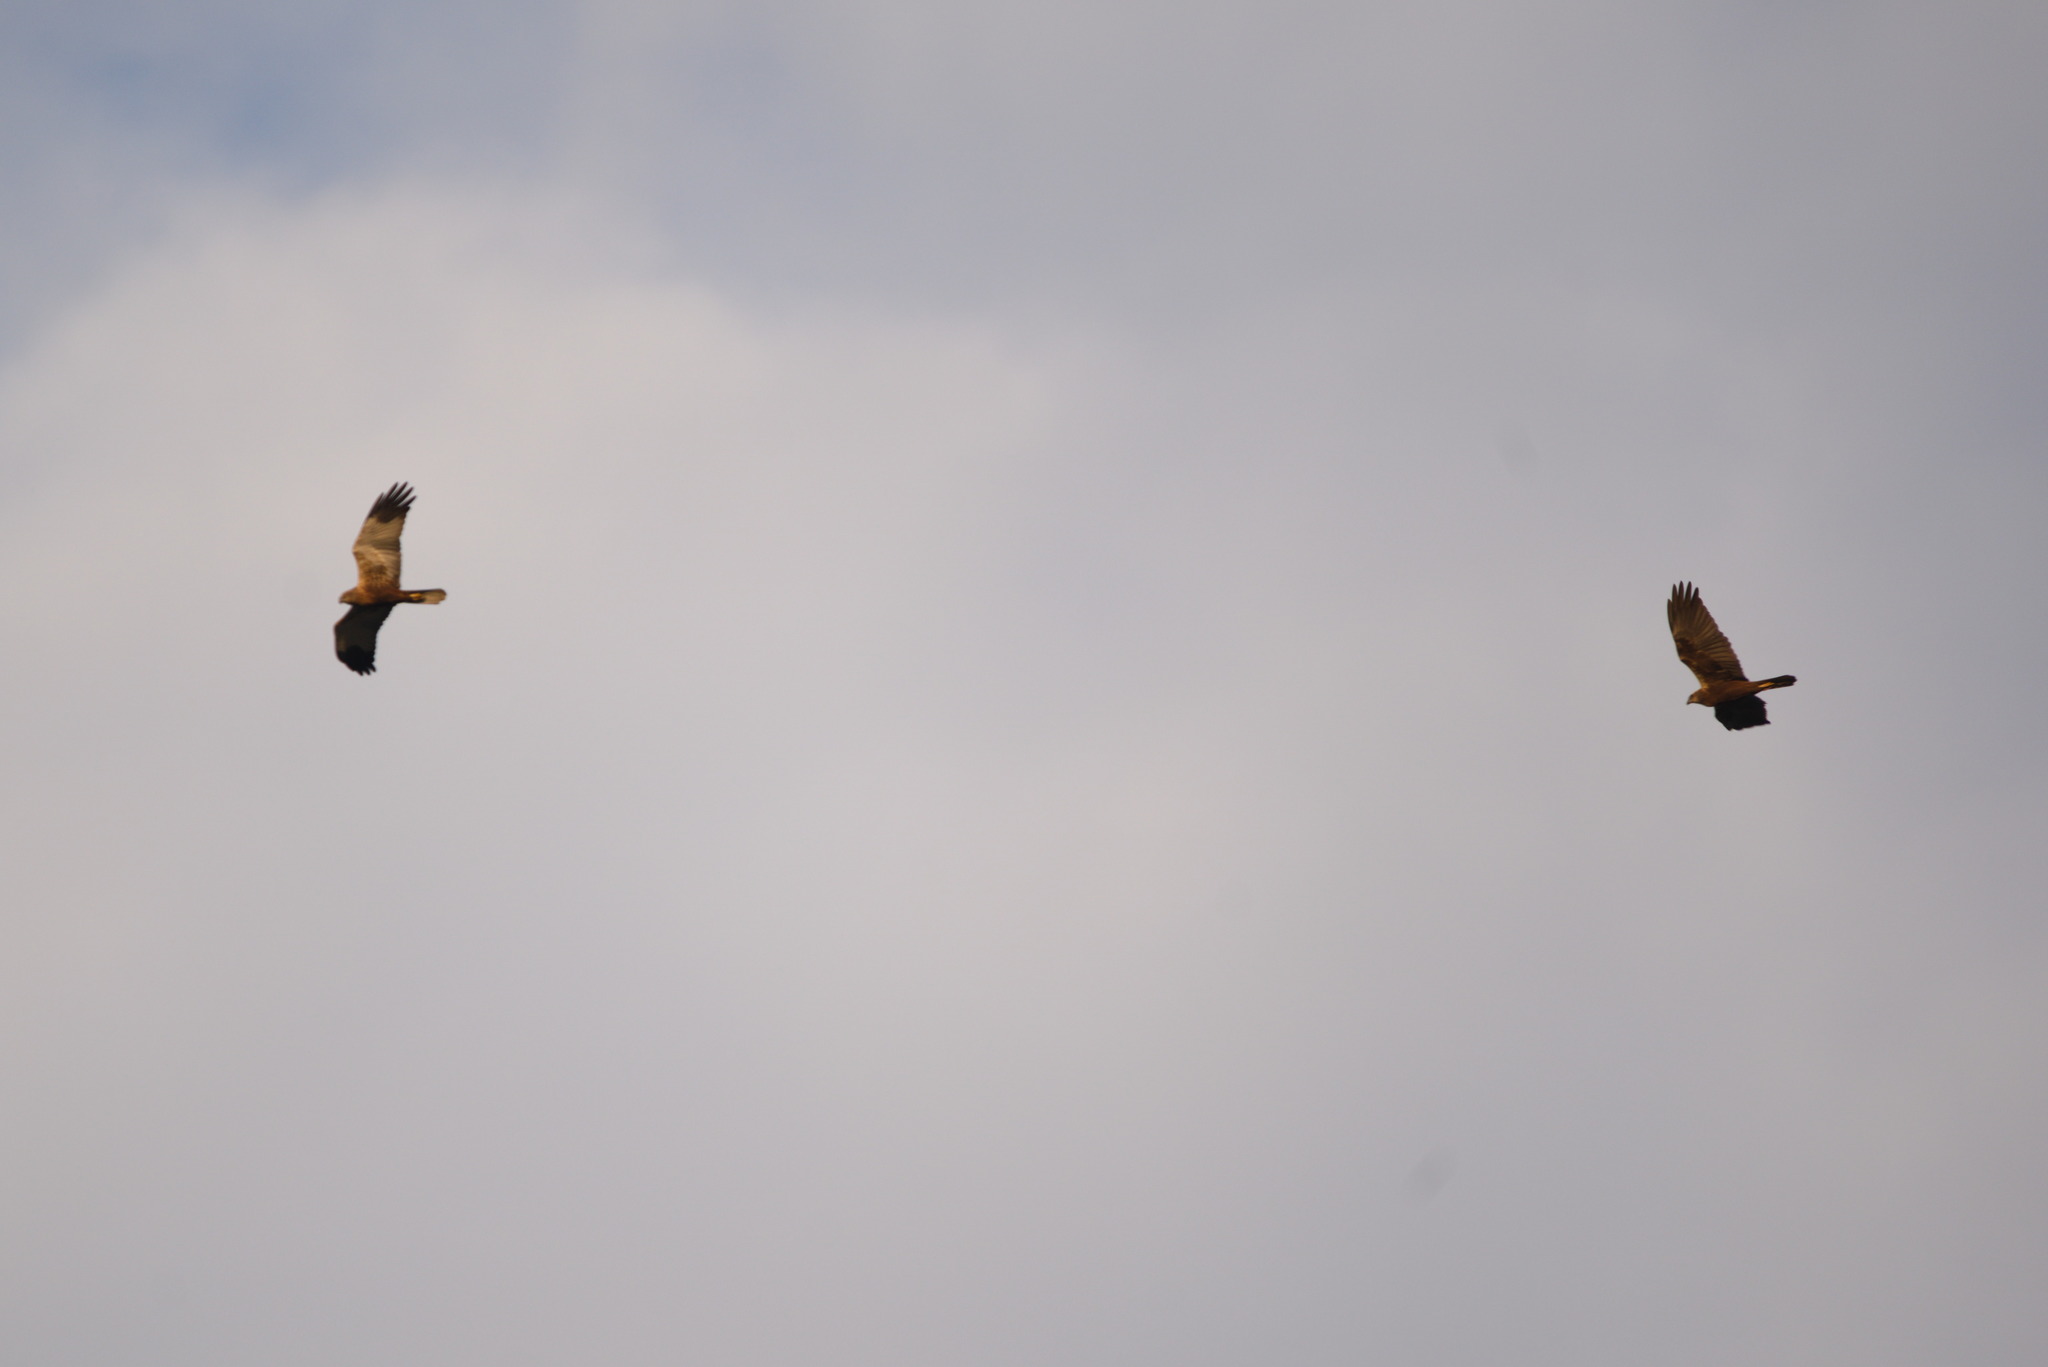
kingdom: Animalia
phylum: Chordata
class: Aves
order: Accipitriformes
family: Accipitridae
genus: Circus
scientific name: Circus aeruginosus
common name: Western marsh harrier
